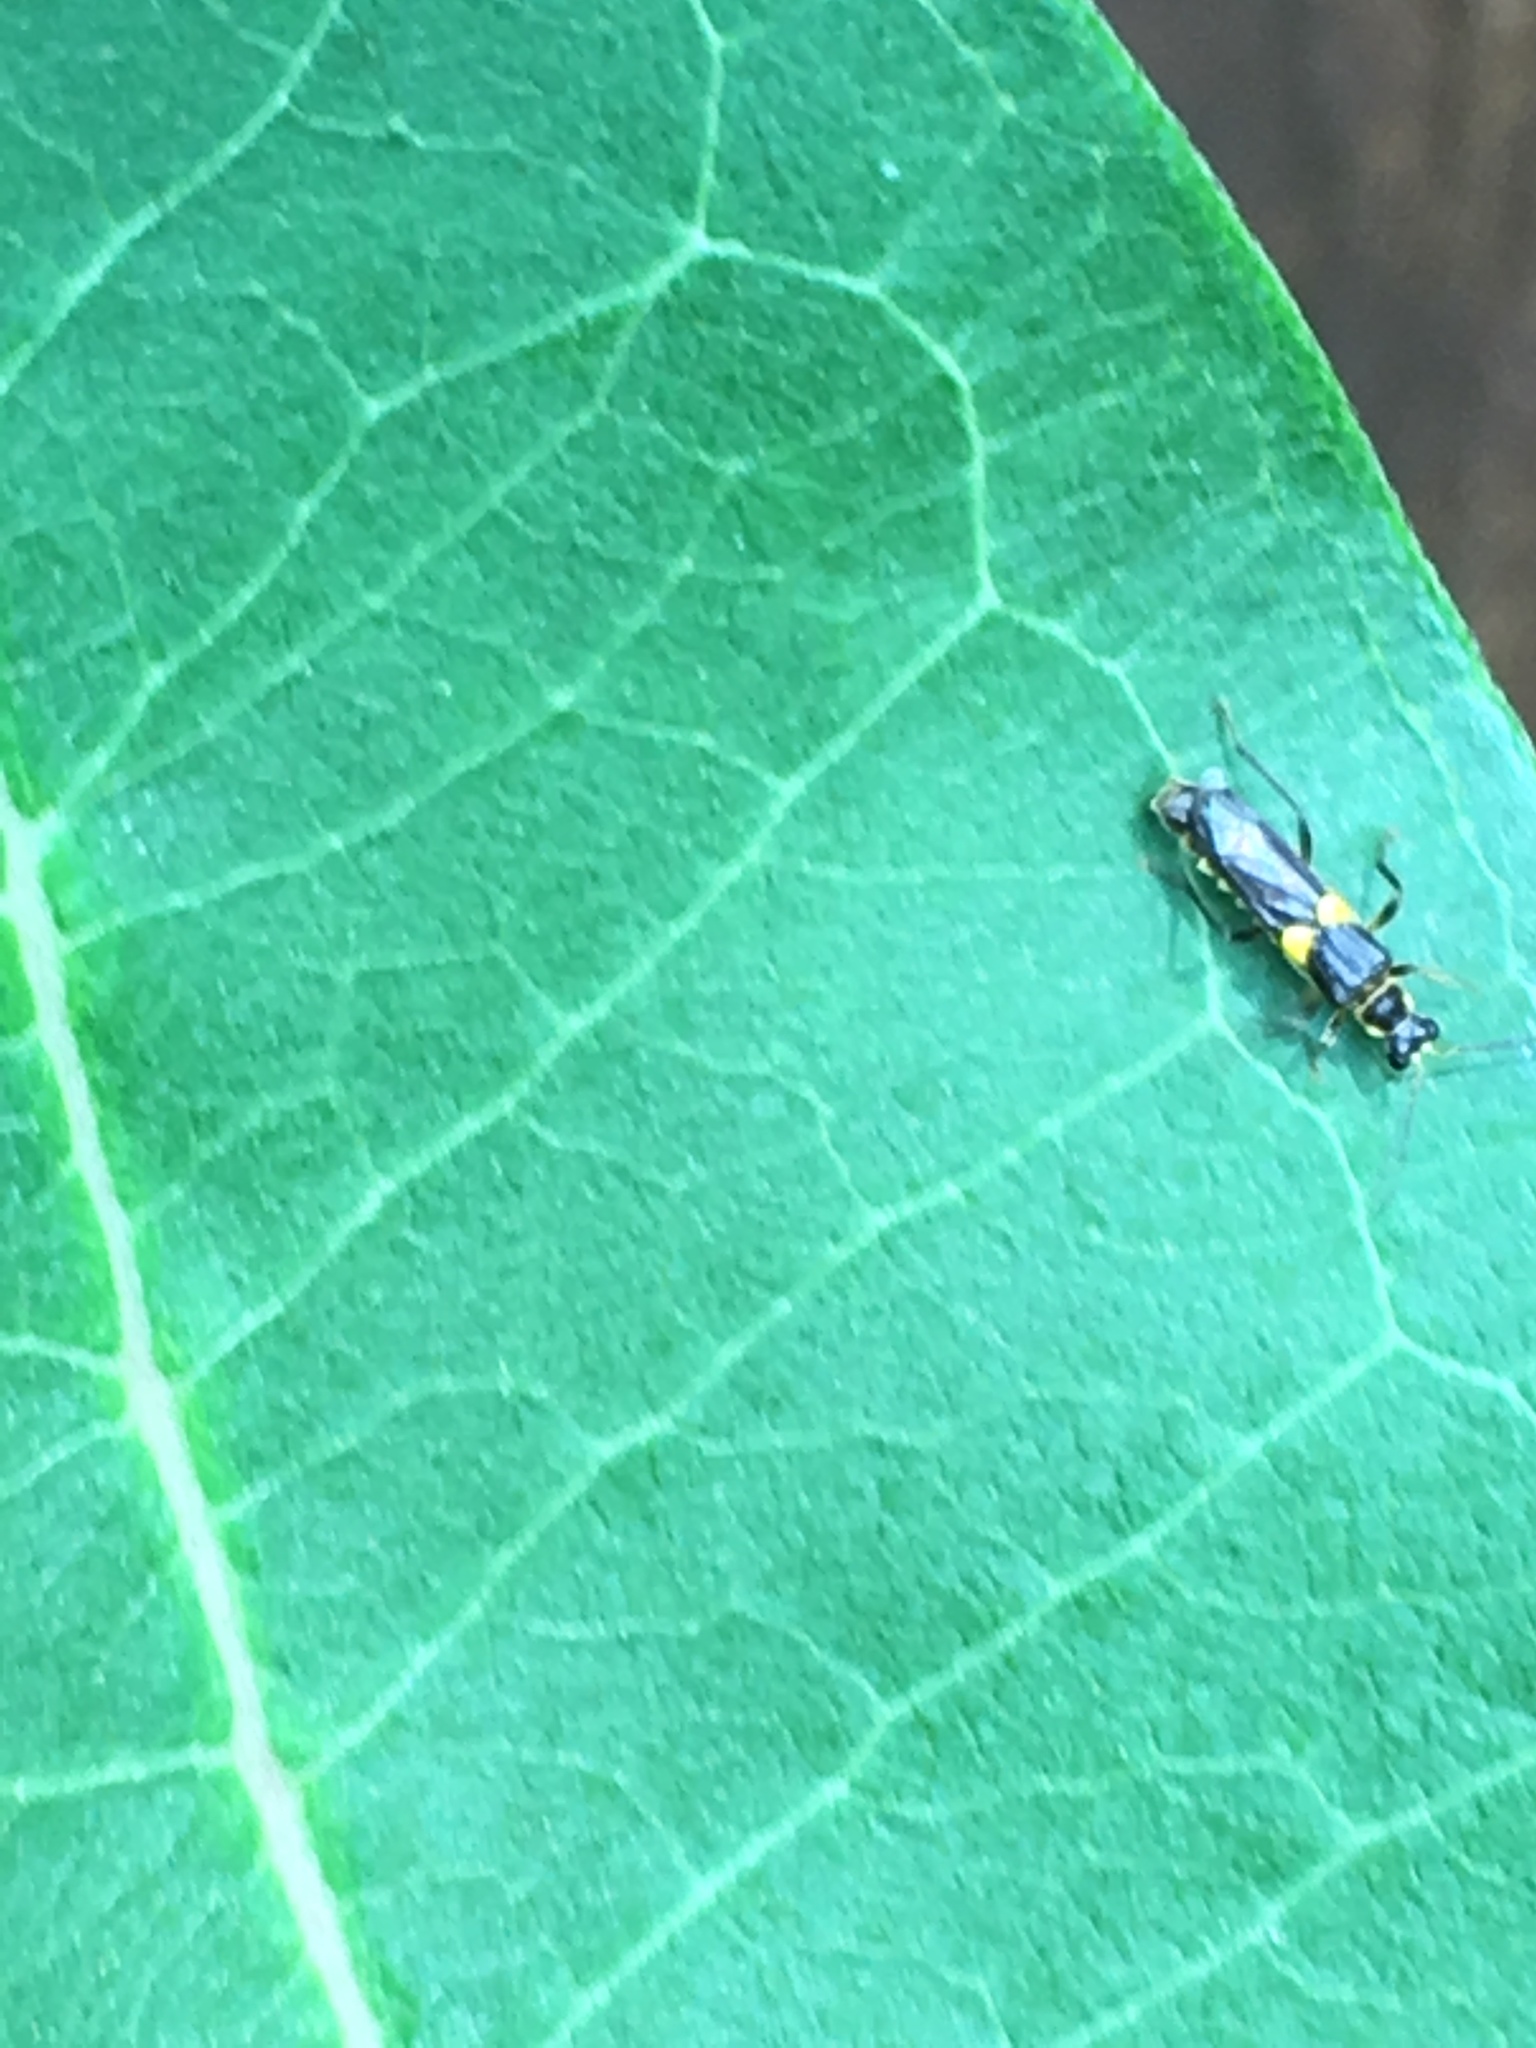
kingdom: Animalia
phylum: Arthropoda
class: Insecta
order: Coleoptera
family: Cantharidae
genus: Trypherus
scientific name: Trypherus frisoni
